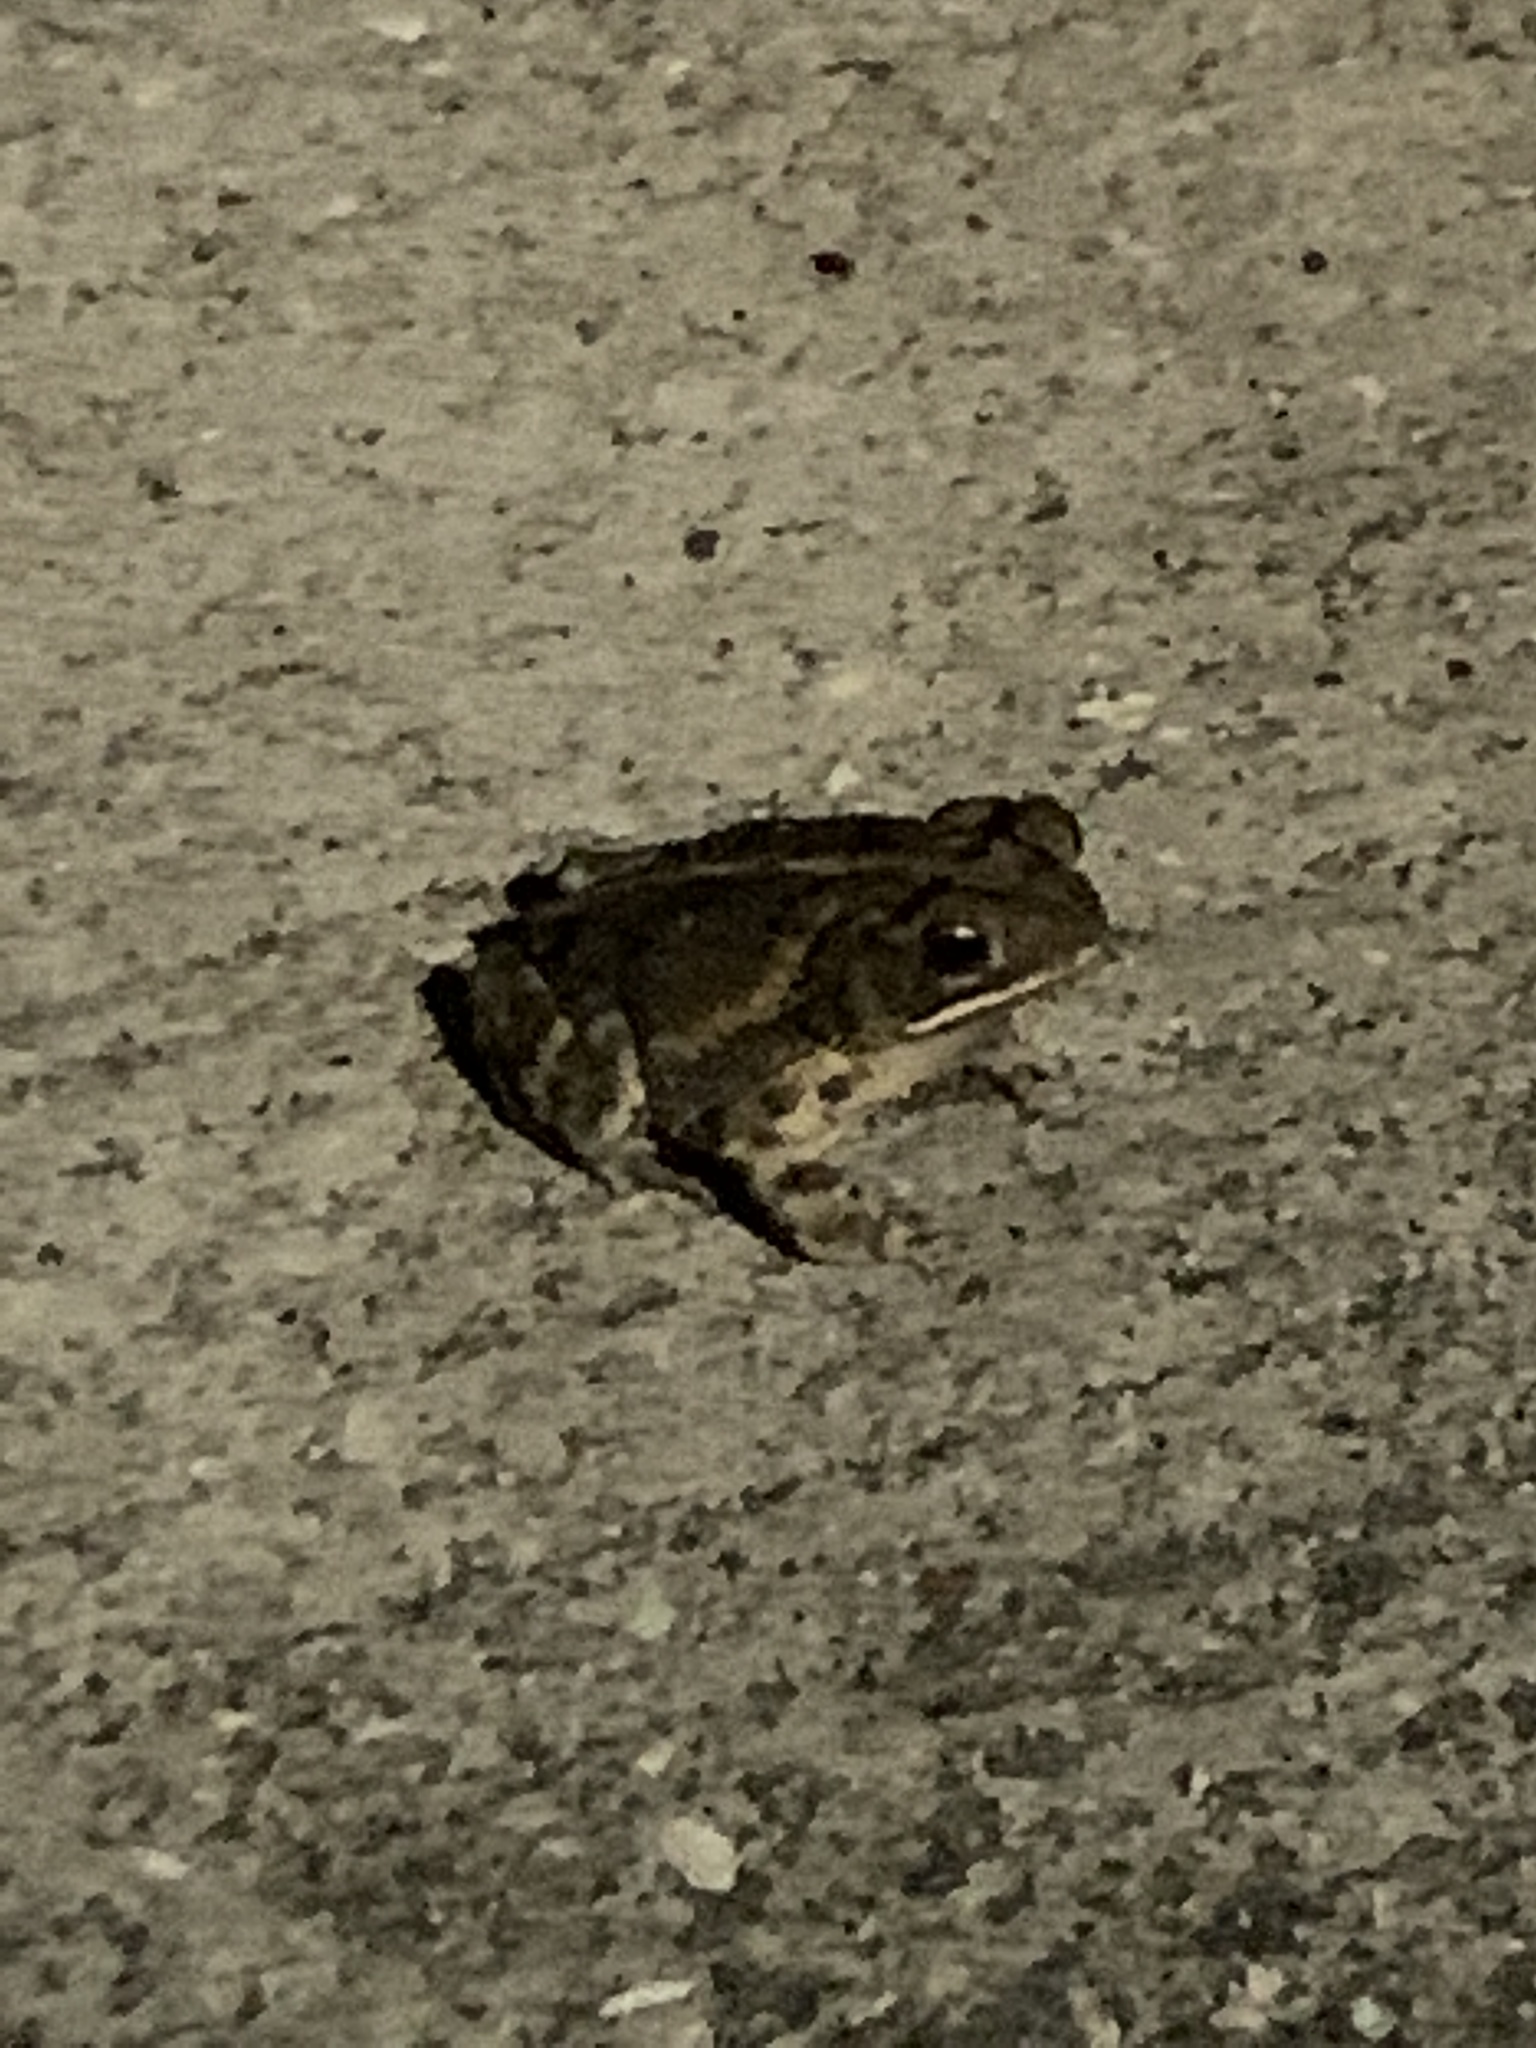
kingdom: Animalia
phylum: Chordata
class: Amphibia
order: Anura
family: Bufonidae
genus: Incilius
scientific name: Incilius nebulifer
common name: Gulf coast toad
